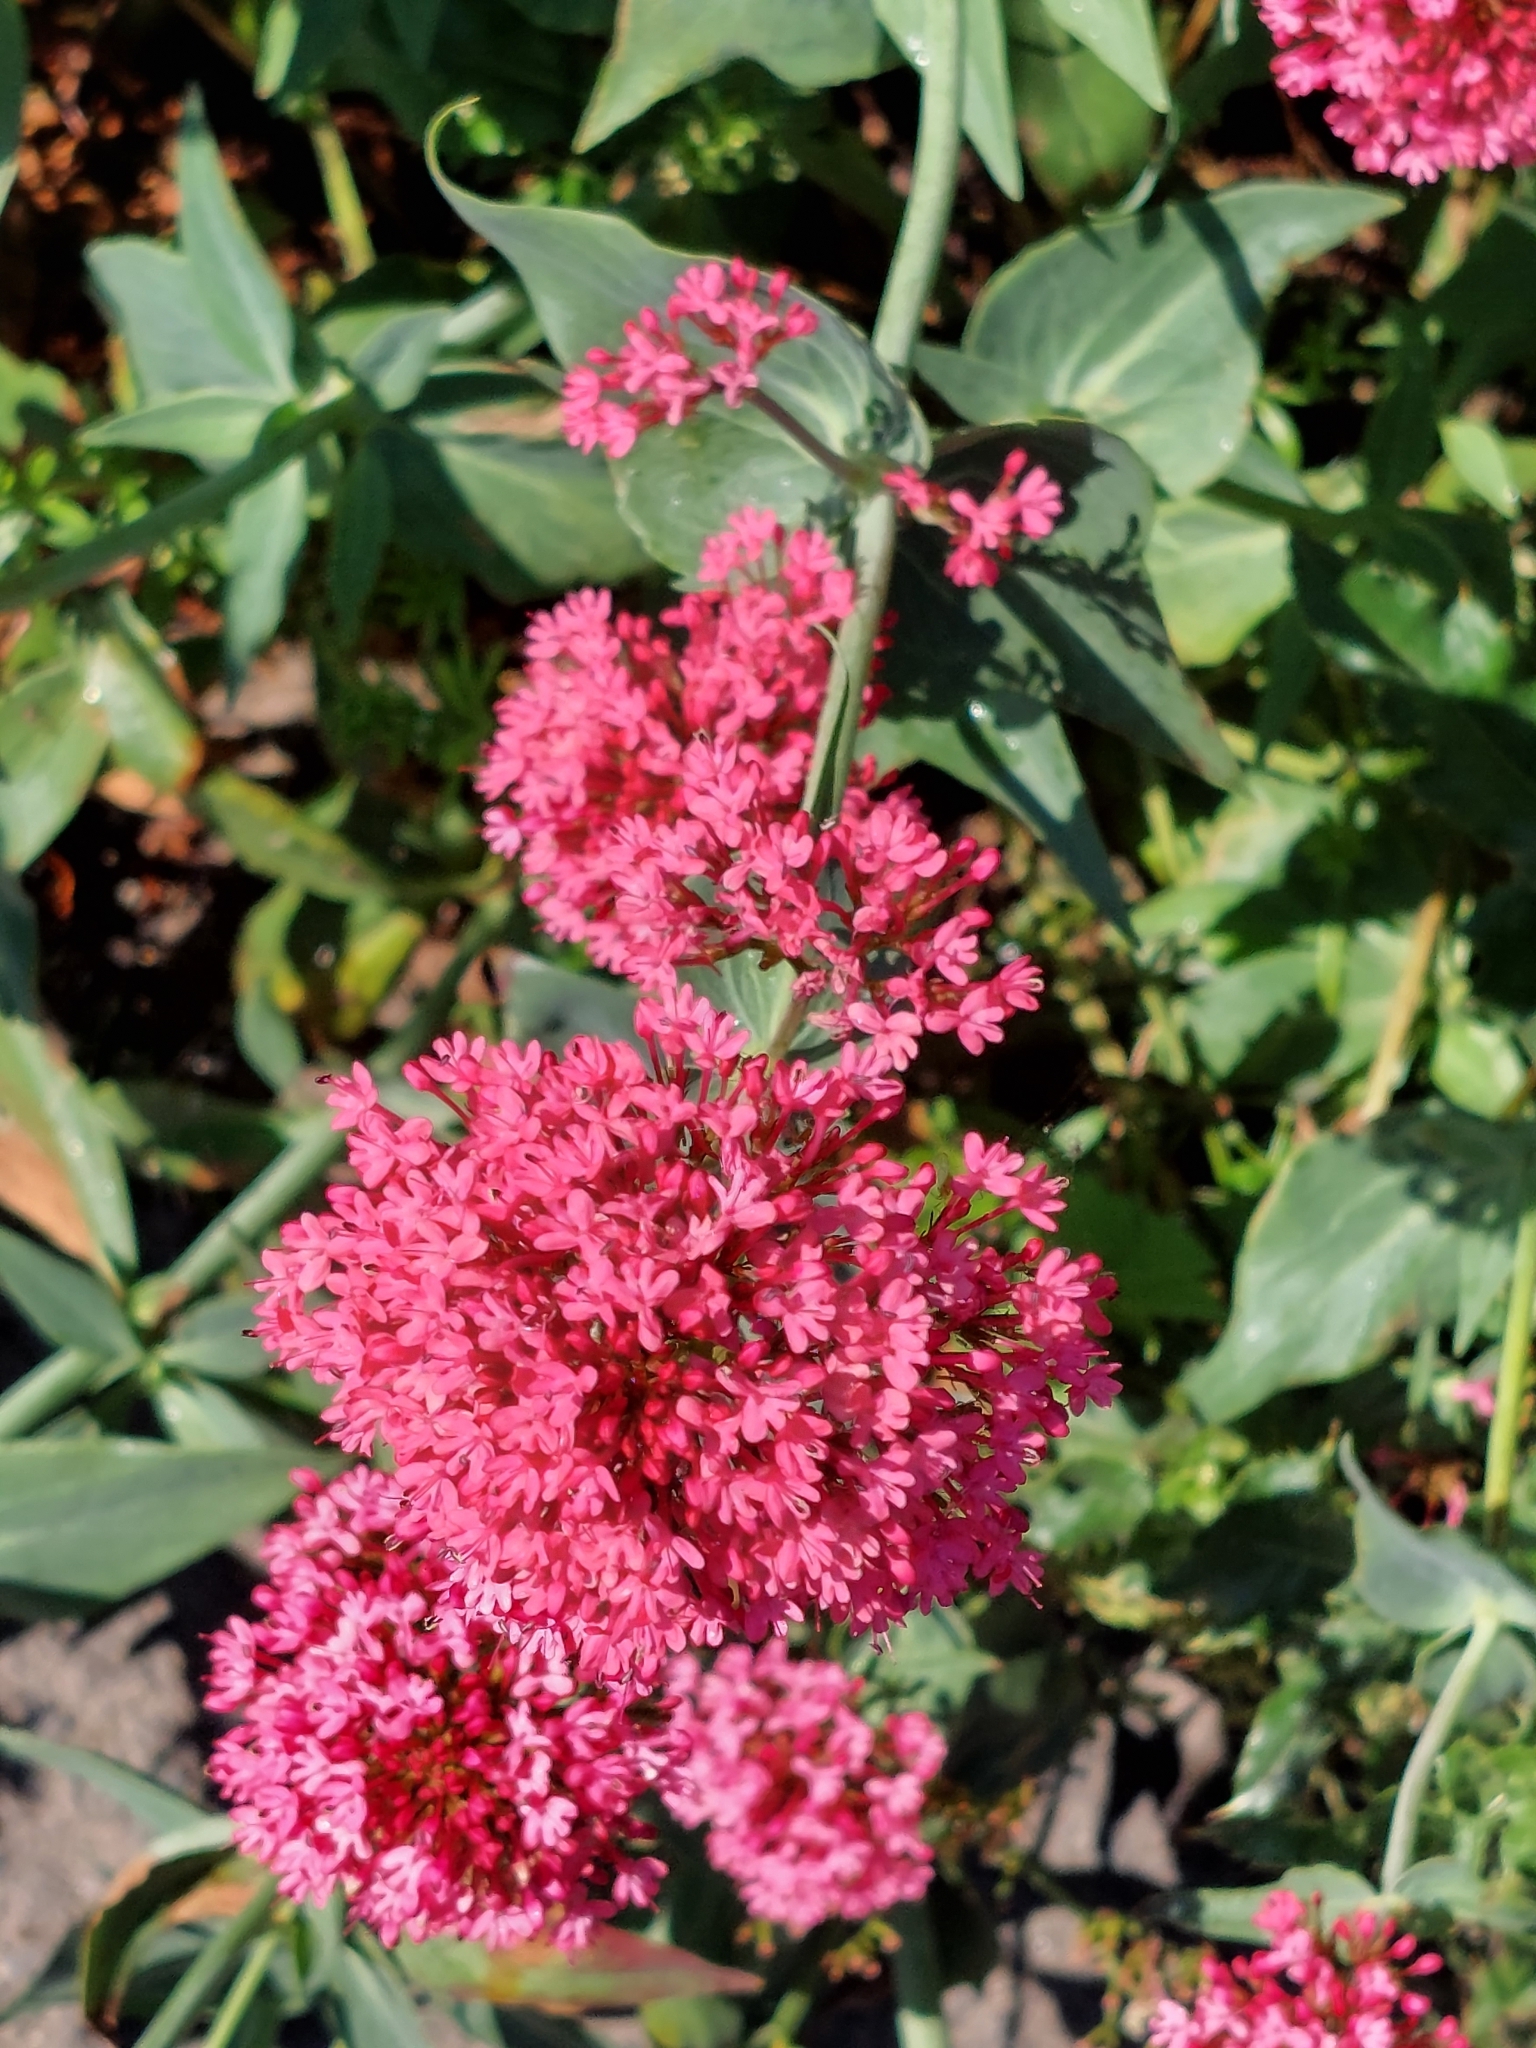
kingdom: Plantae
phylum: Tracheophyta
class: Magnoliopsida
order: Dipsacales
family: Caprifoliaceae
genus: Centranthus
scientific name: Centranthus ruber
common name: Red valerian
